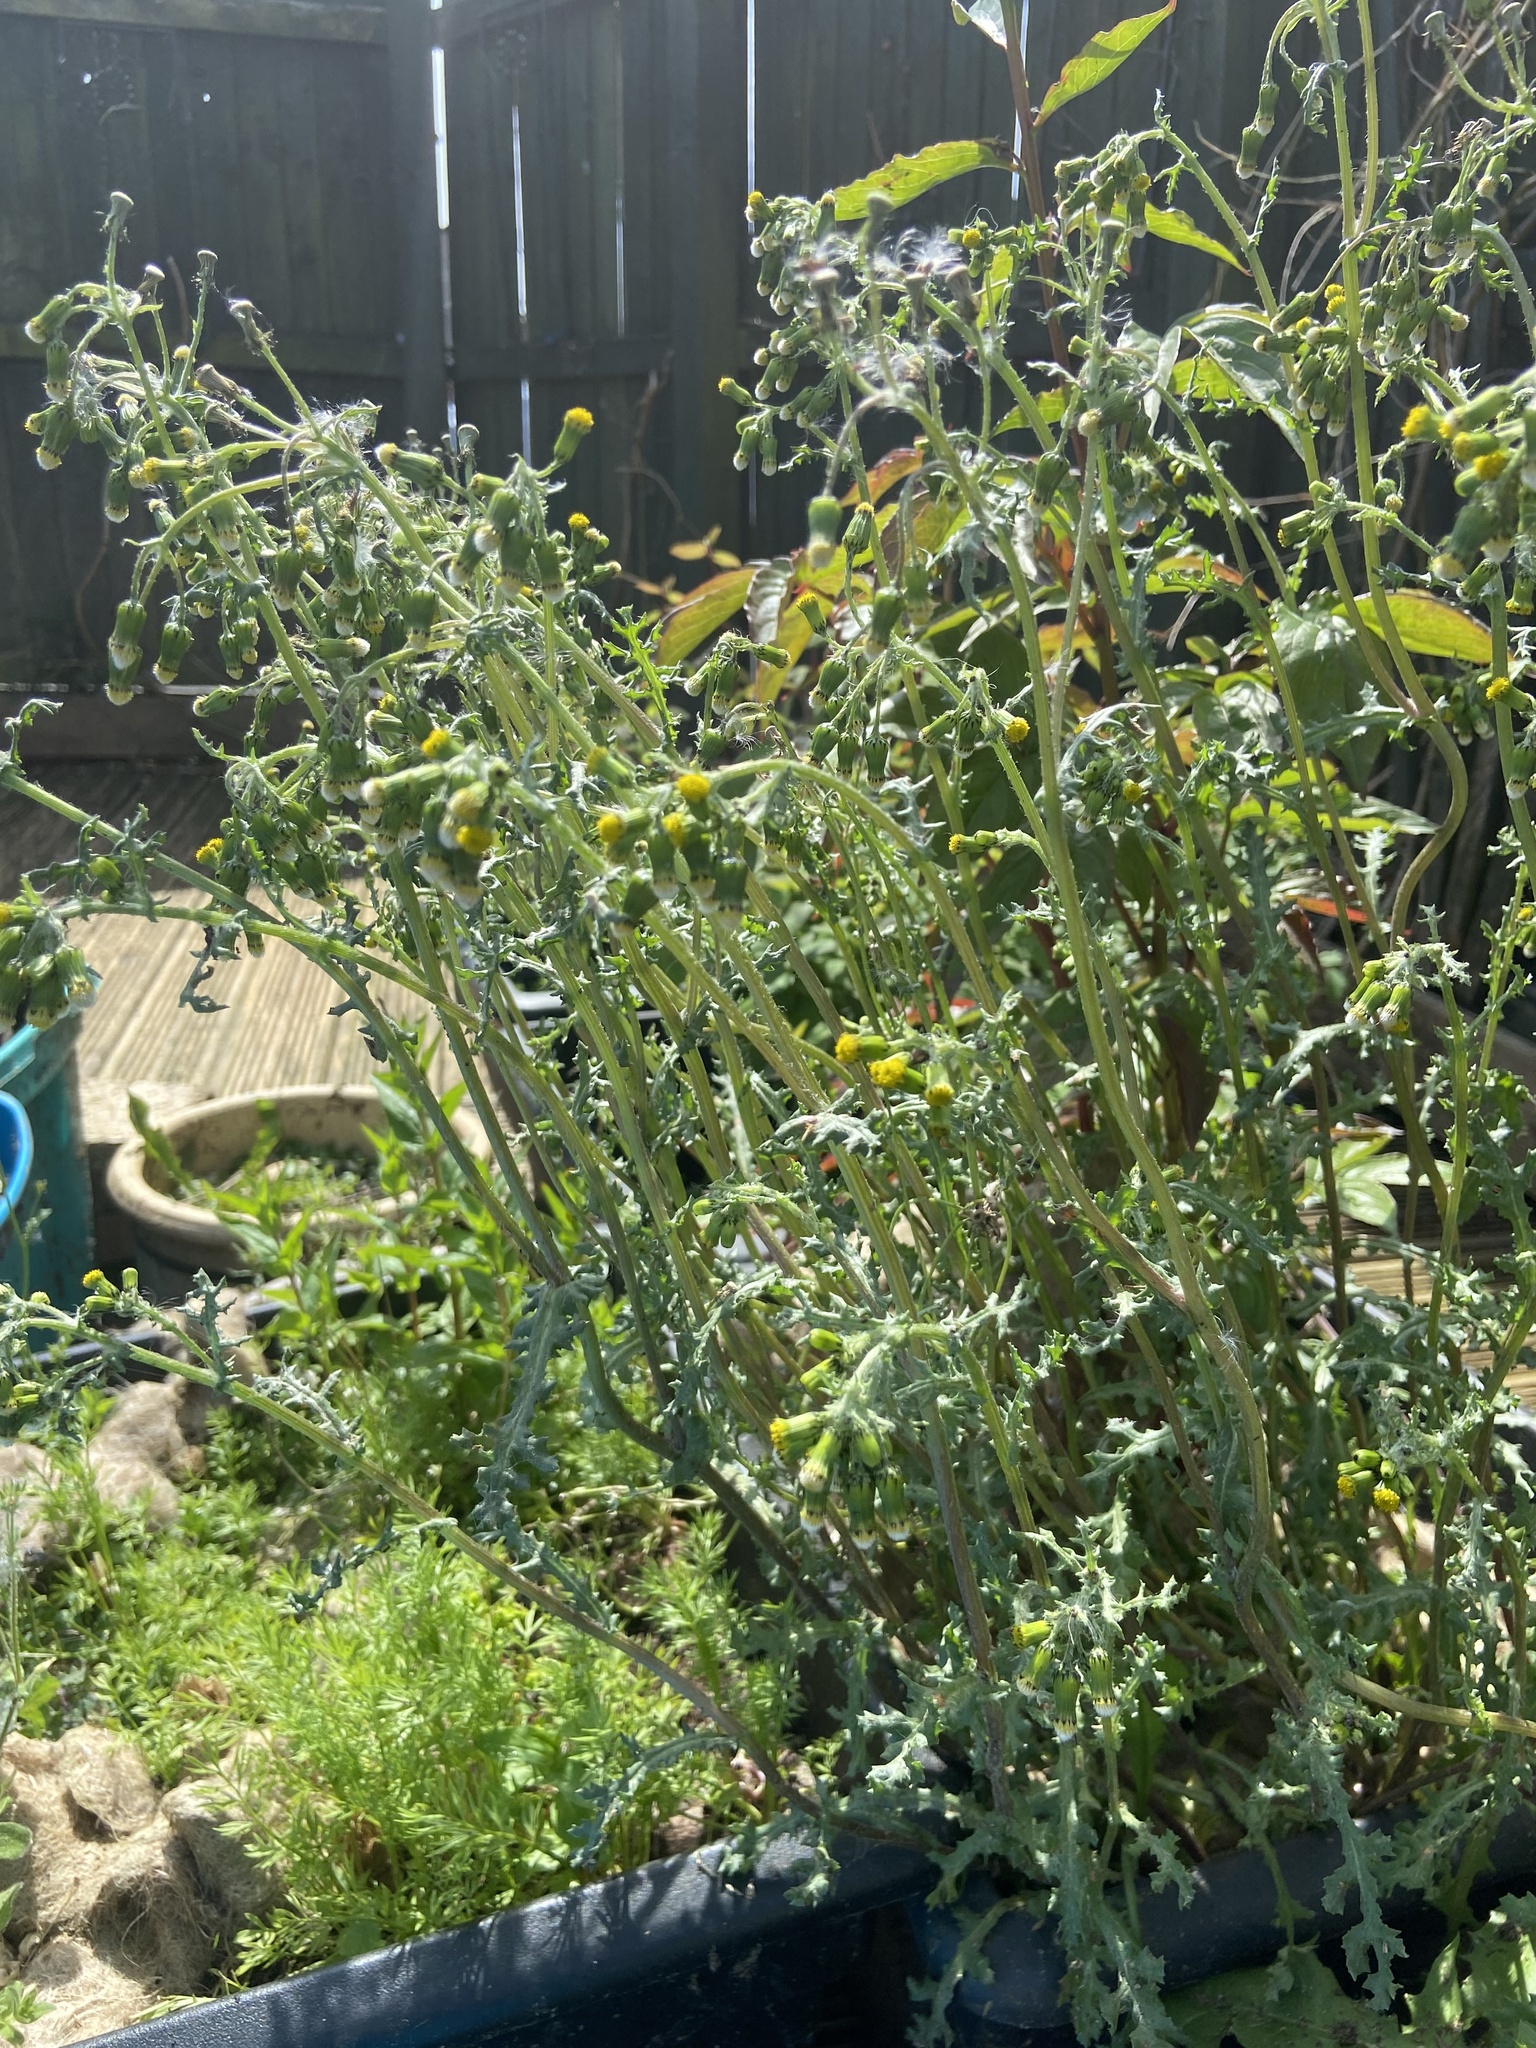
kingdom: Plantae
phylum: Tracheophyta
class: Magnoliopsida
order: Asterales
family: Asteraceae
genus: Senecio
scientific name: Senecio vulgaris
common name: Old-man-in-the-spring
